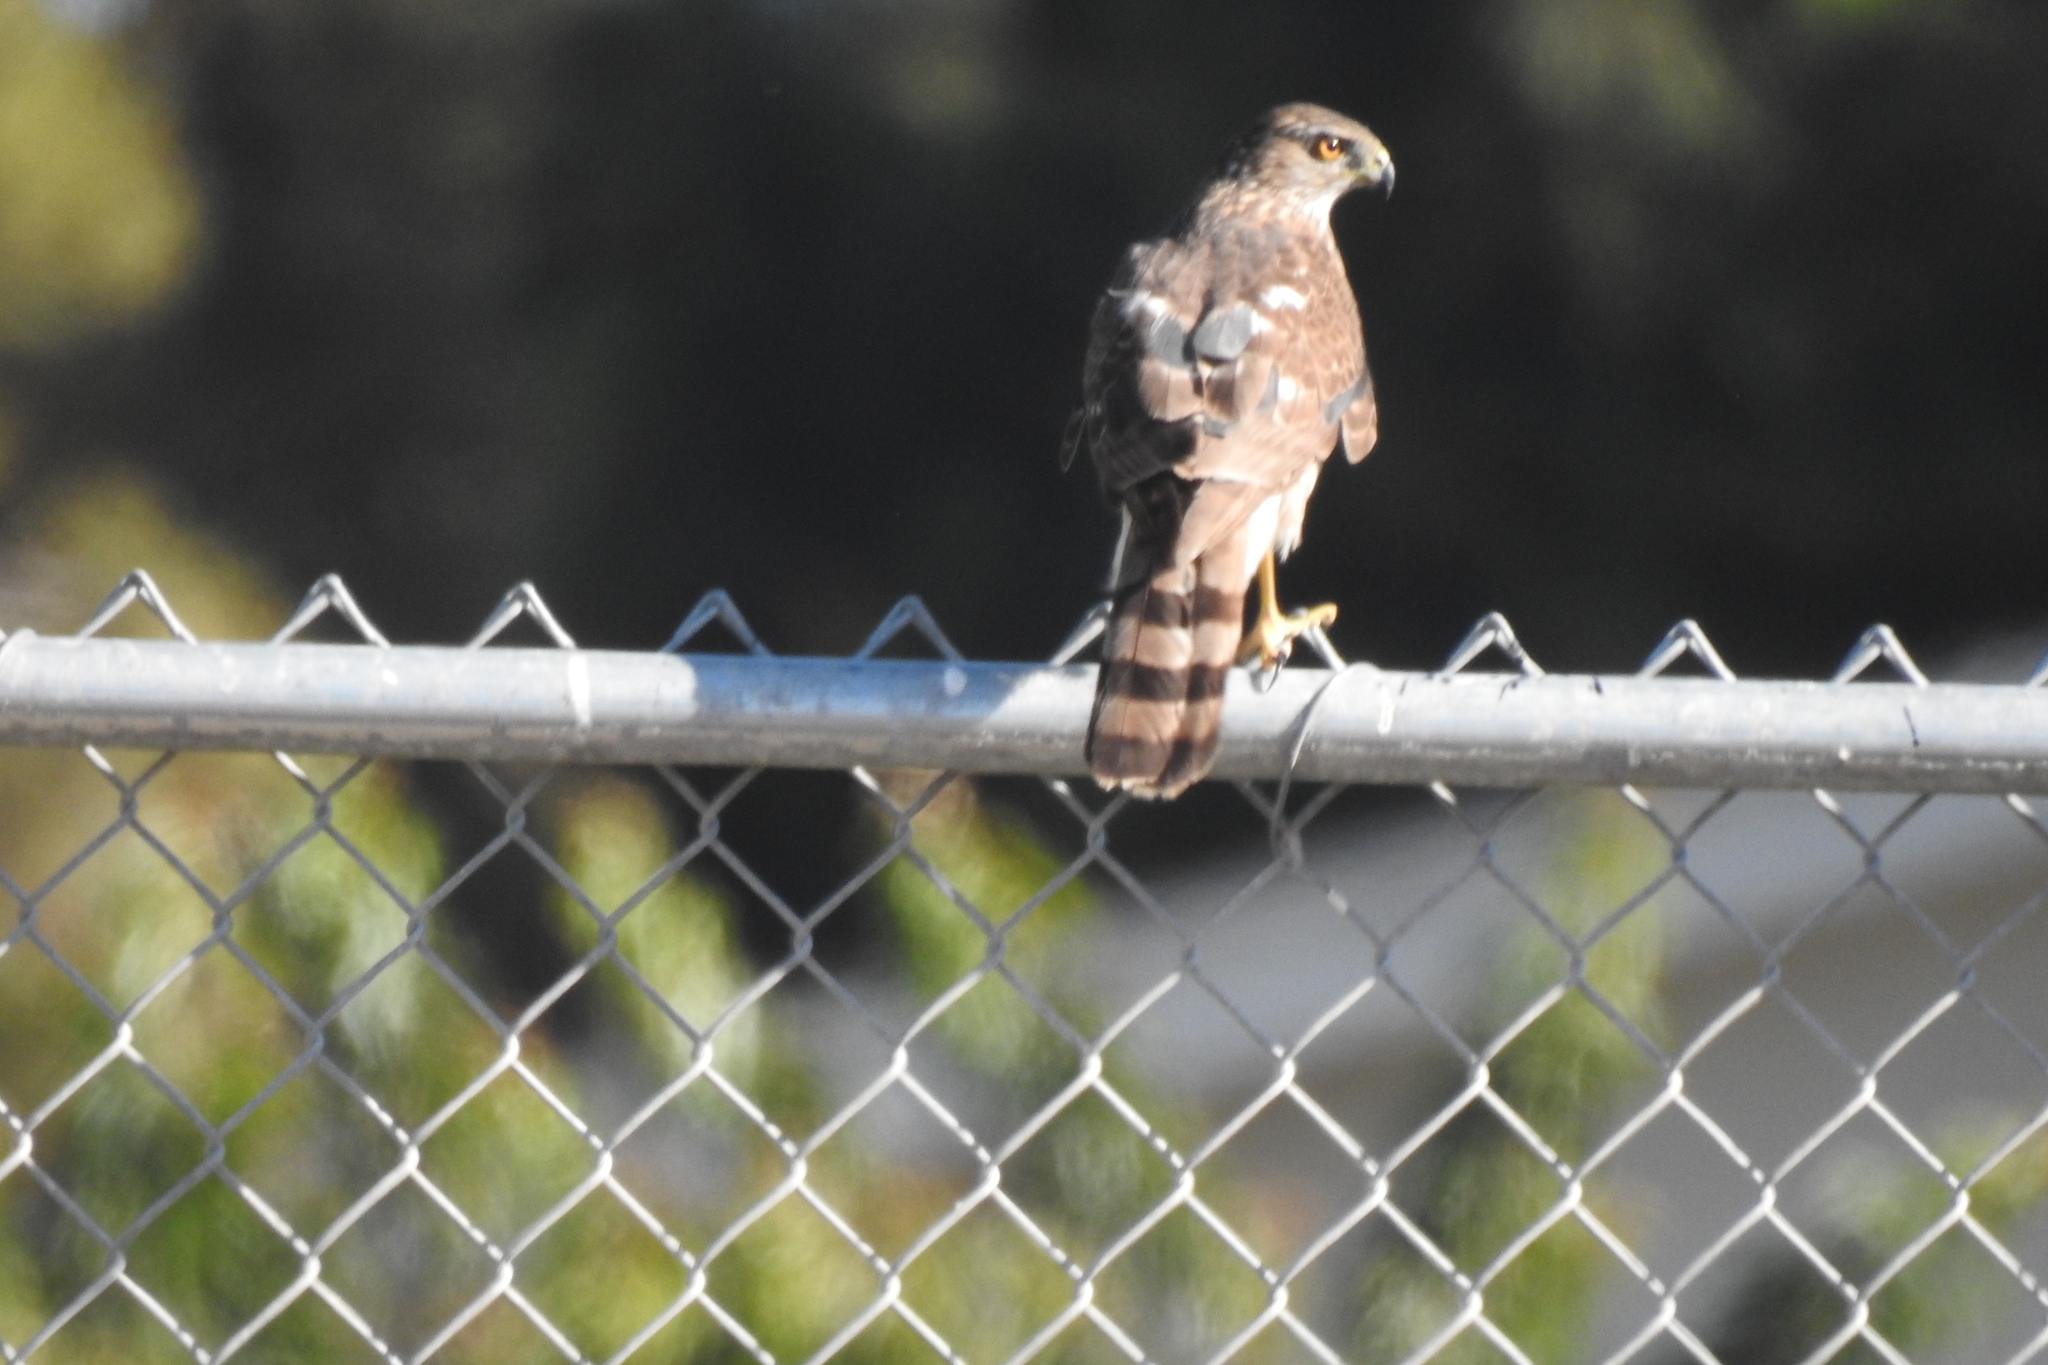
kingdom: Animalia
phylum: Chordata
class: Aves
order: Accipitriformes
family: Accipitridae
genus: Accipiter
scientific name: Accipiter cooperii
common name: Cooper's hawk
